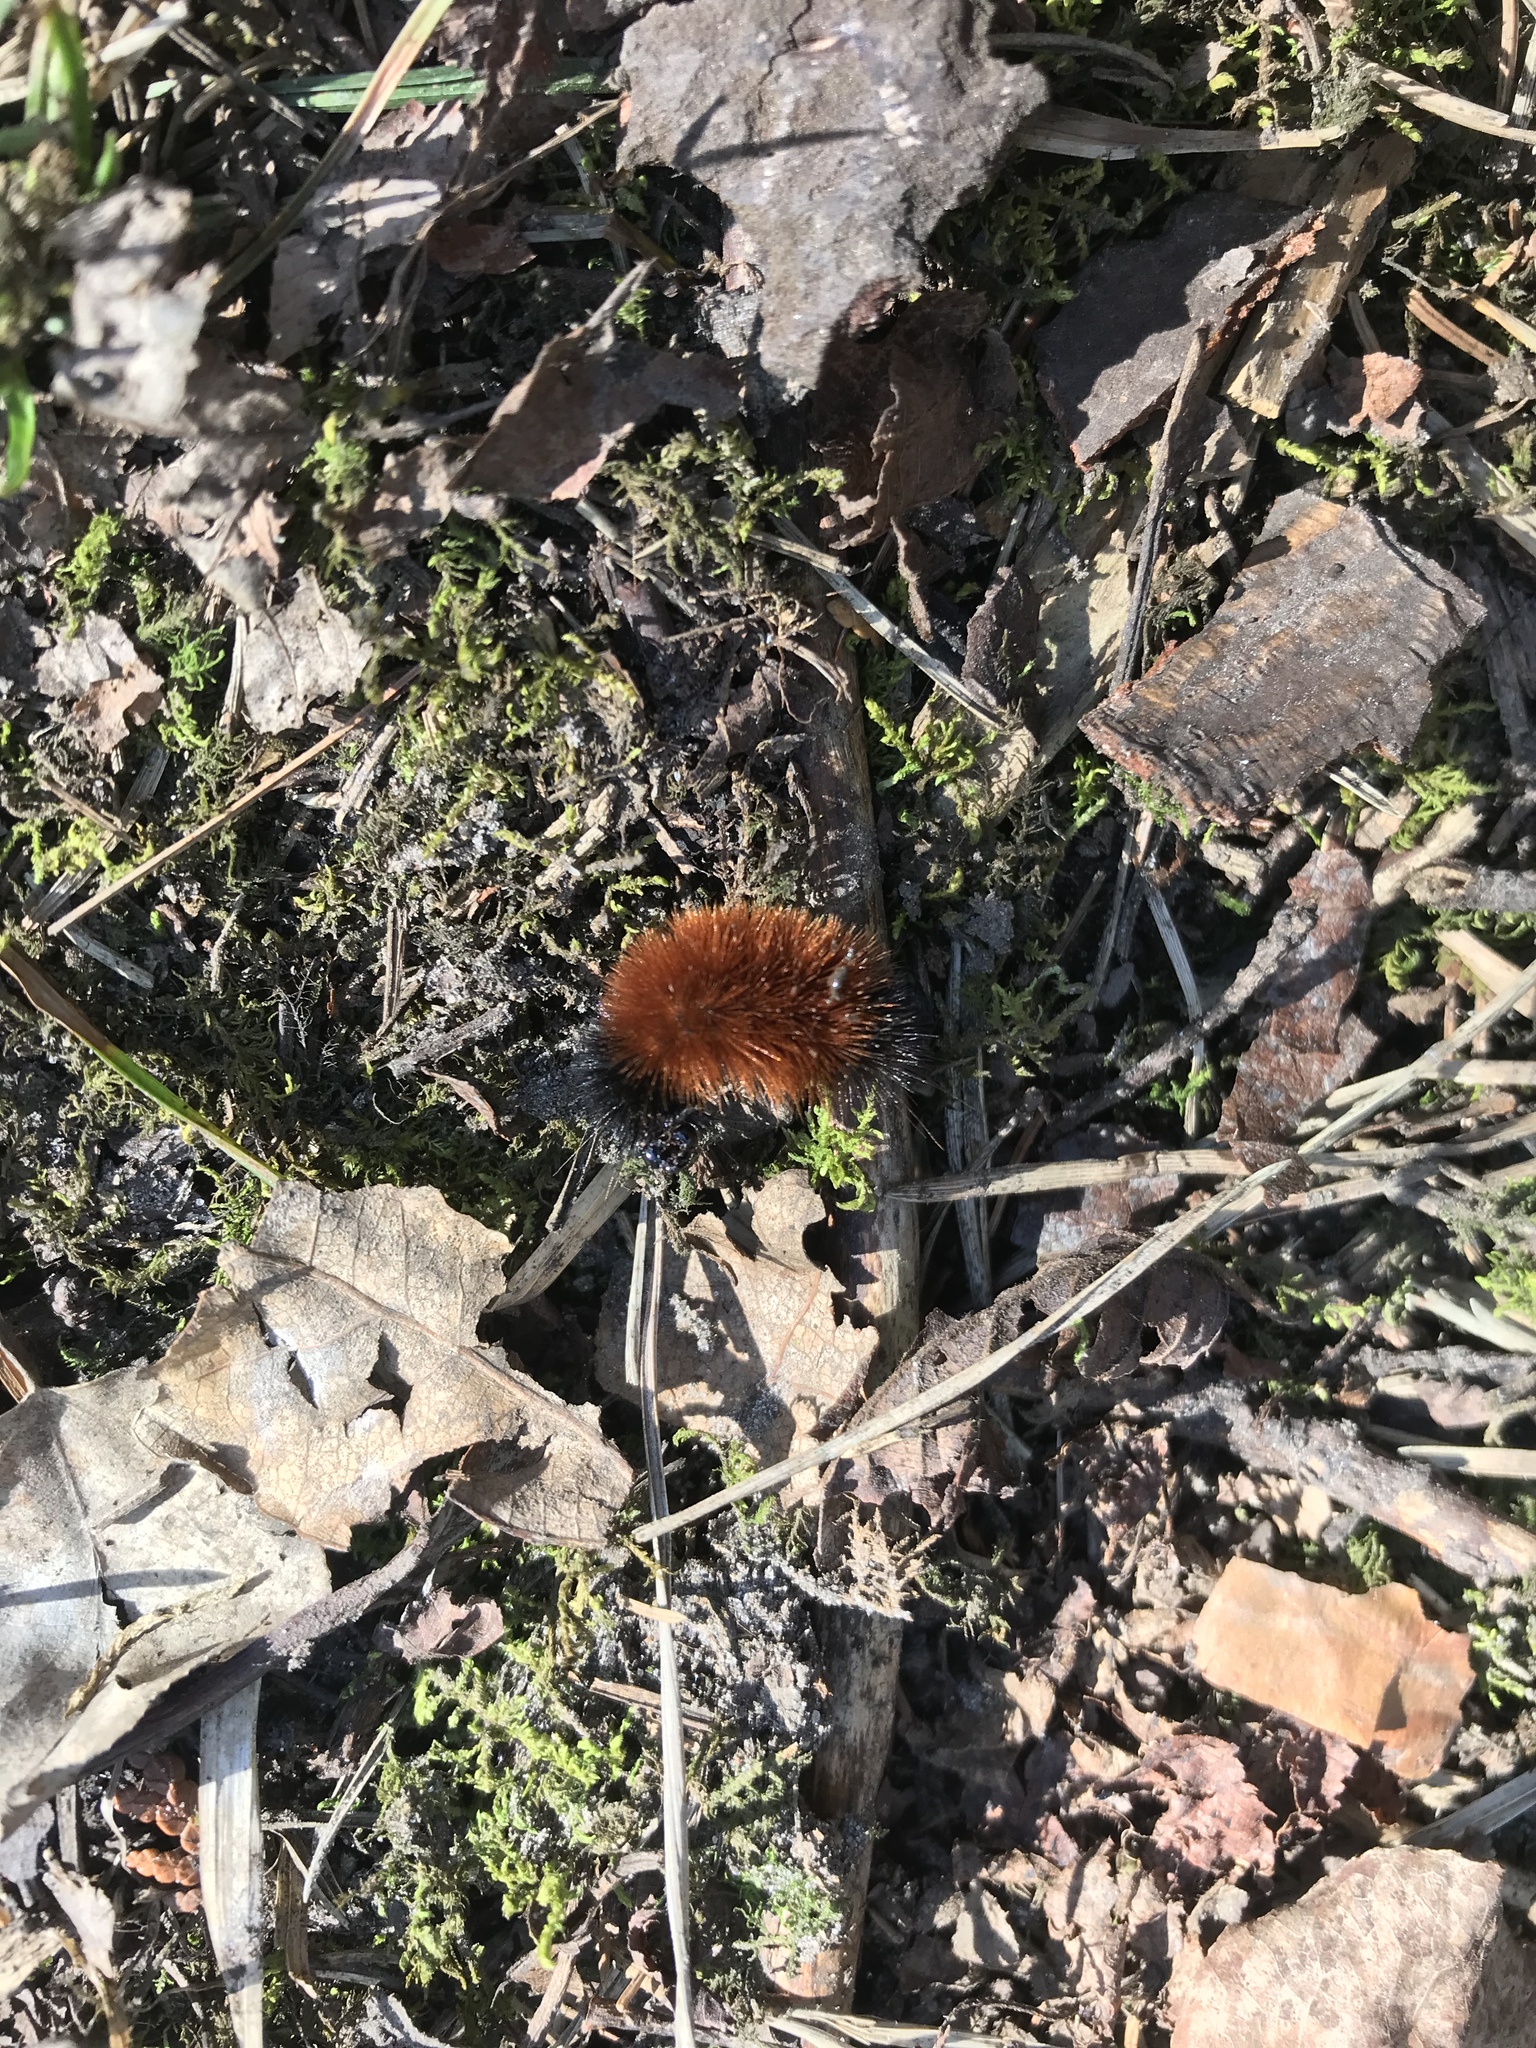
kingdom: Animalia
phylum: Arthropoda
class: Insecta
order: Lepidoptera
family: Erebidae
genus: Pyrrharctia
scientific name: Pyrrharctia isabella
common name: Isabella tiger moth
